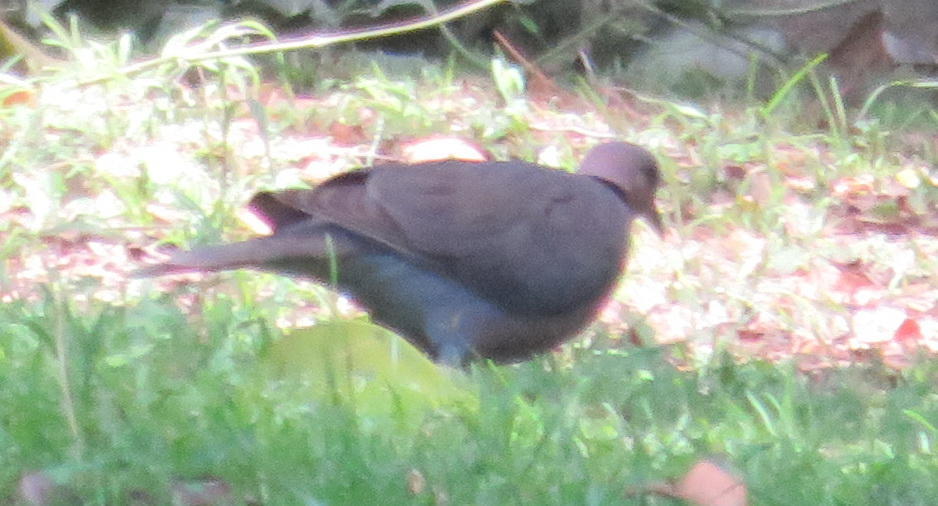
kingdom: Animalia
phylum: Chordata
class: Aves
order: Columbiformes
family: Columbidae
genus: Streptopelia
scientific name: Streptopelia semitorquata
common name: Red-eyed dove
